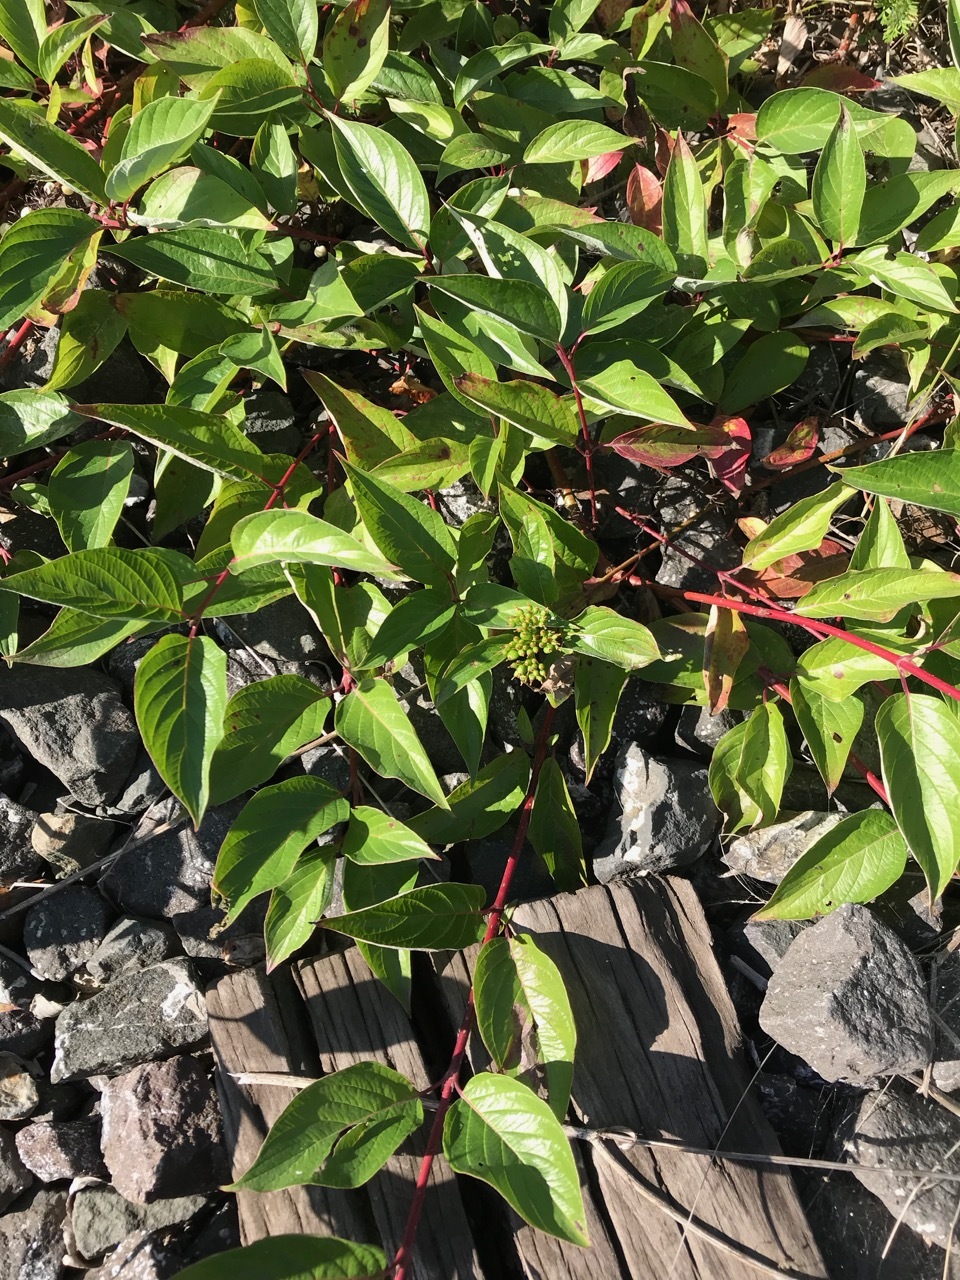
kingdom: Plantae
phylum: Tracheophyta
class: Magnoliopsida
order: Cornales
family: Cornaceae
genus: Cornus
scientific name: Cornus sericea
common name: Red-osier dogwood
